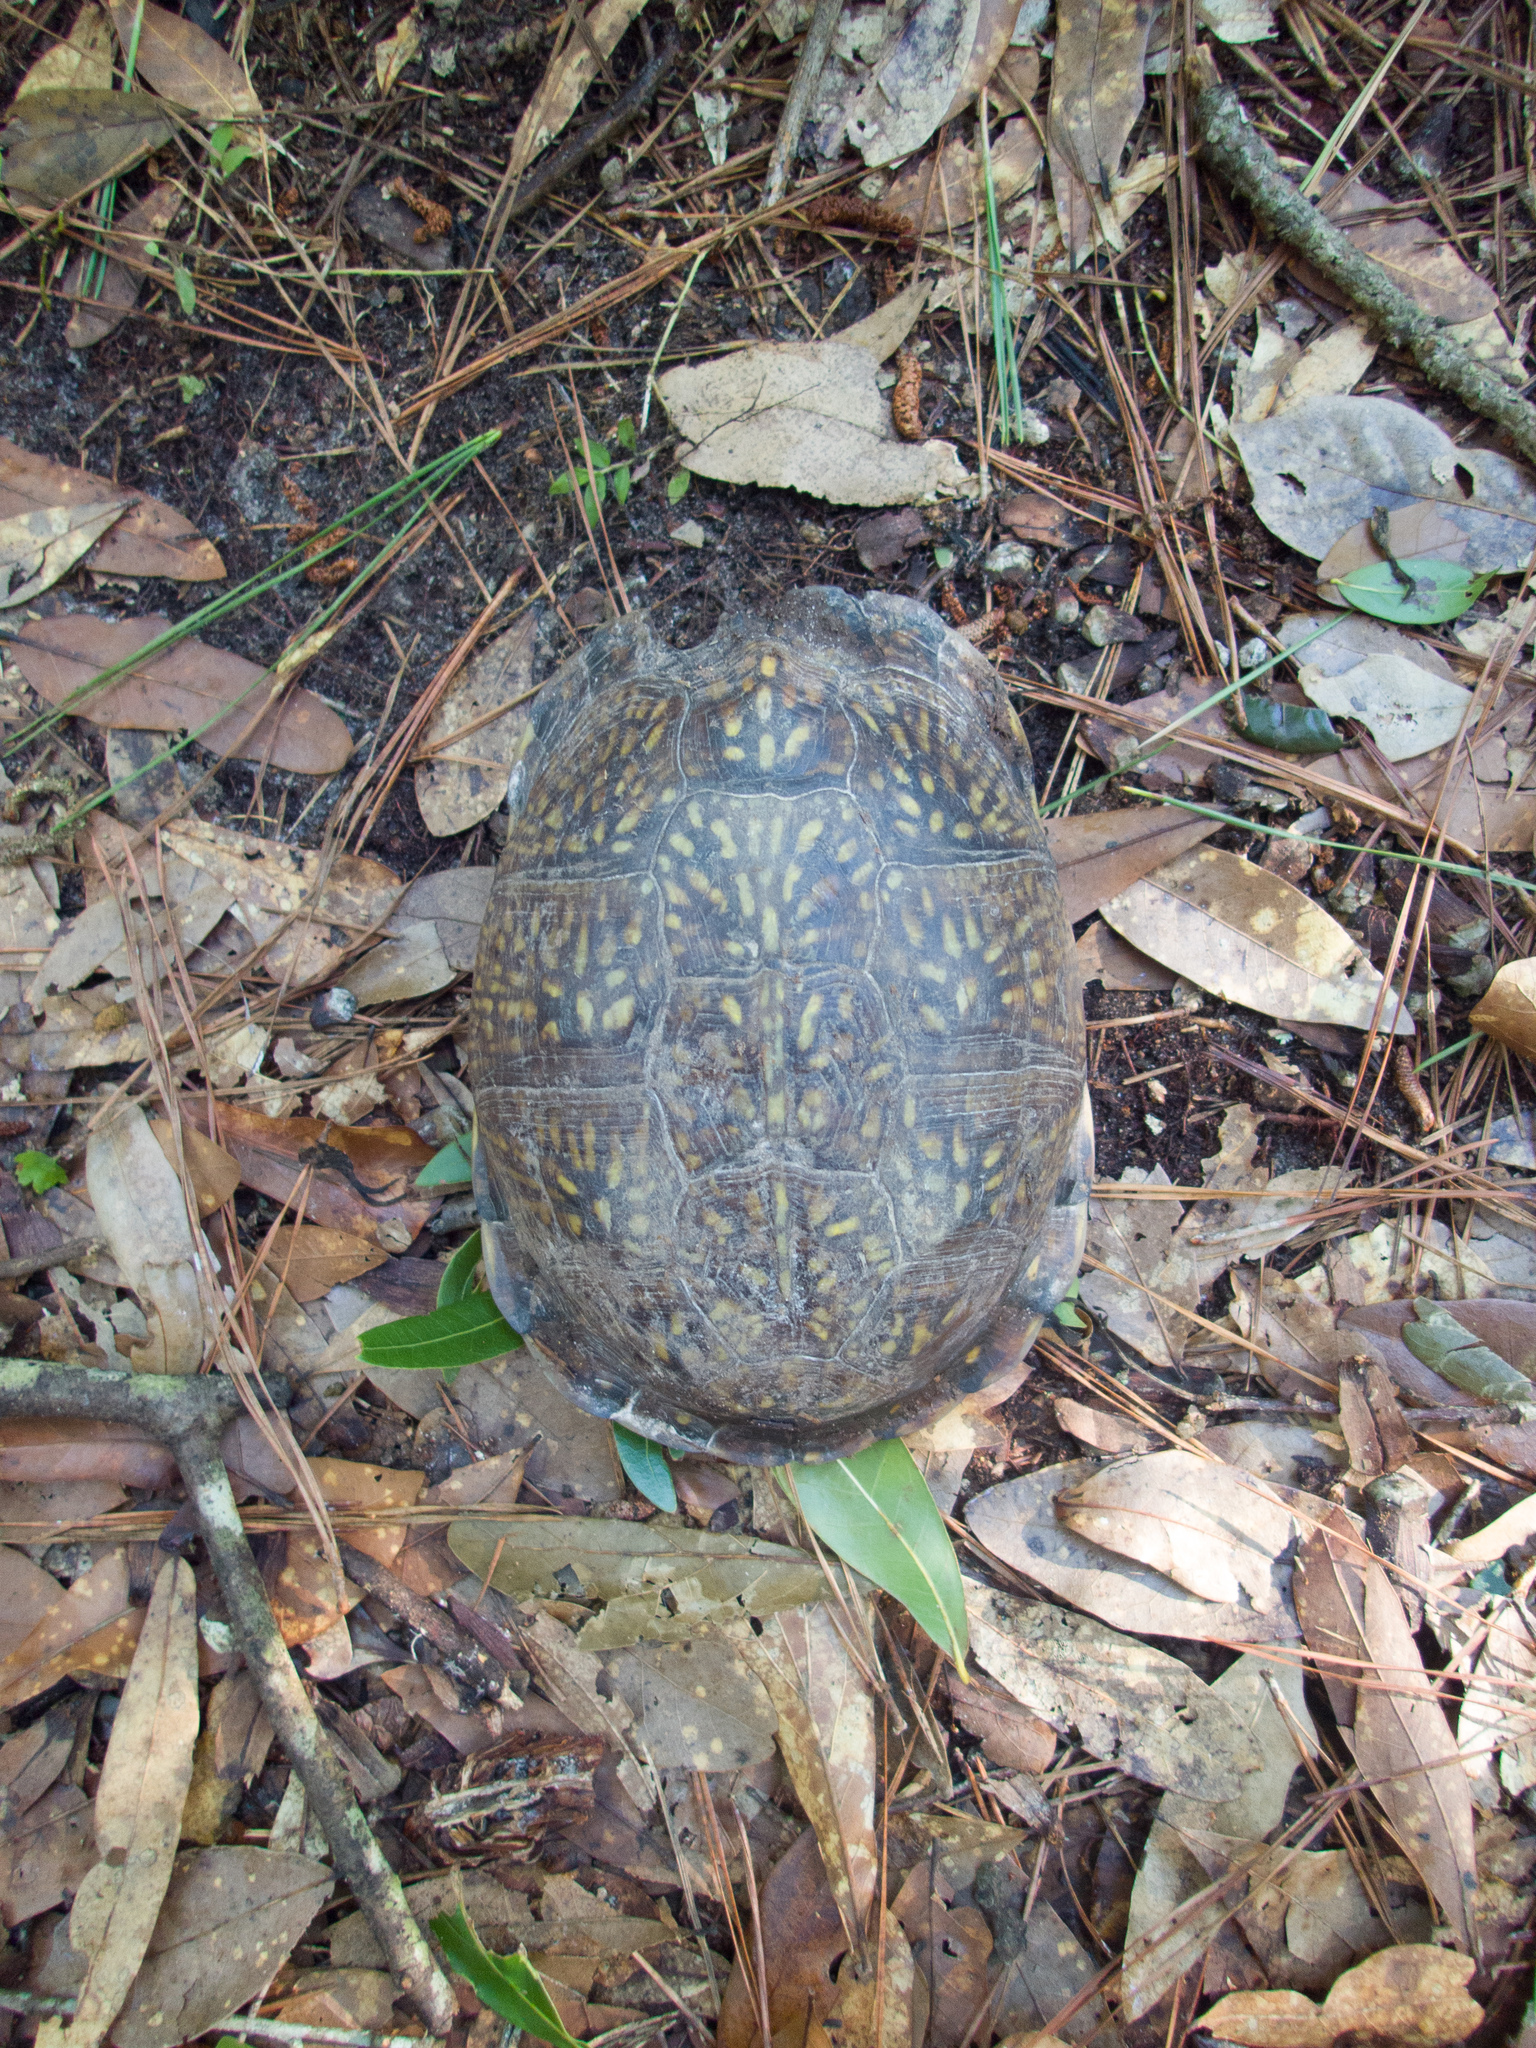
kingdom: Animalia
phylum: Chordata
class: Testudines
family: Emydidae
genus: Terrapene
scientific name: Terrapene carolina
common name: Common box turtle
